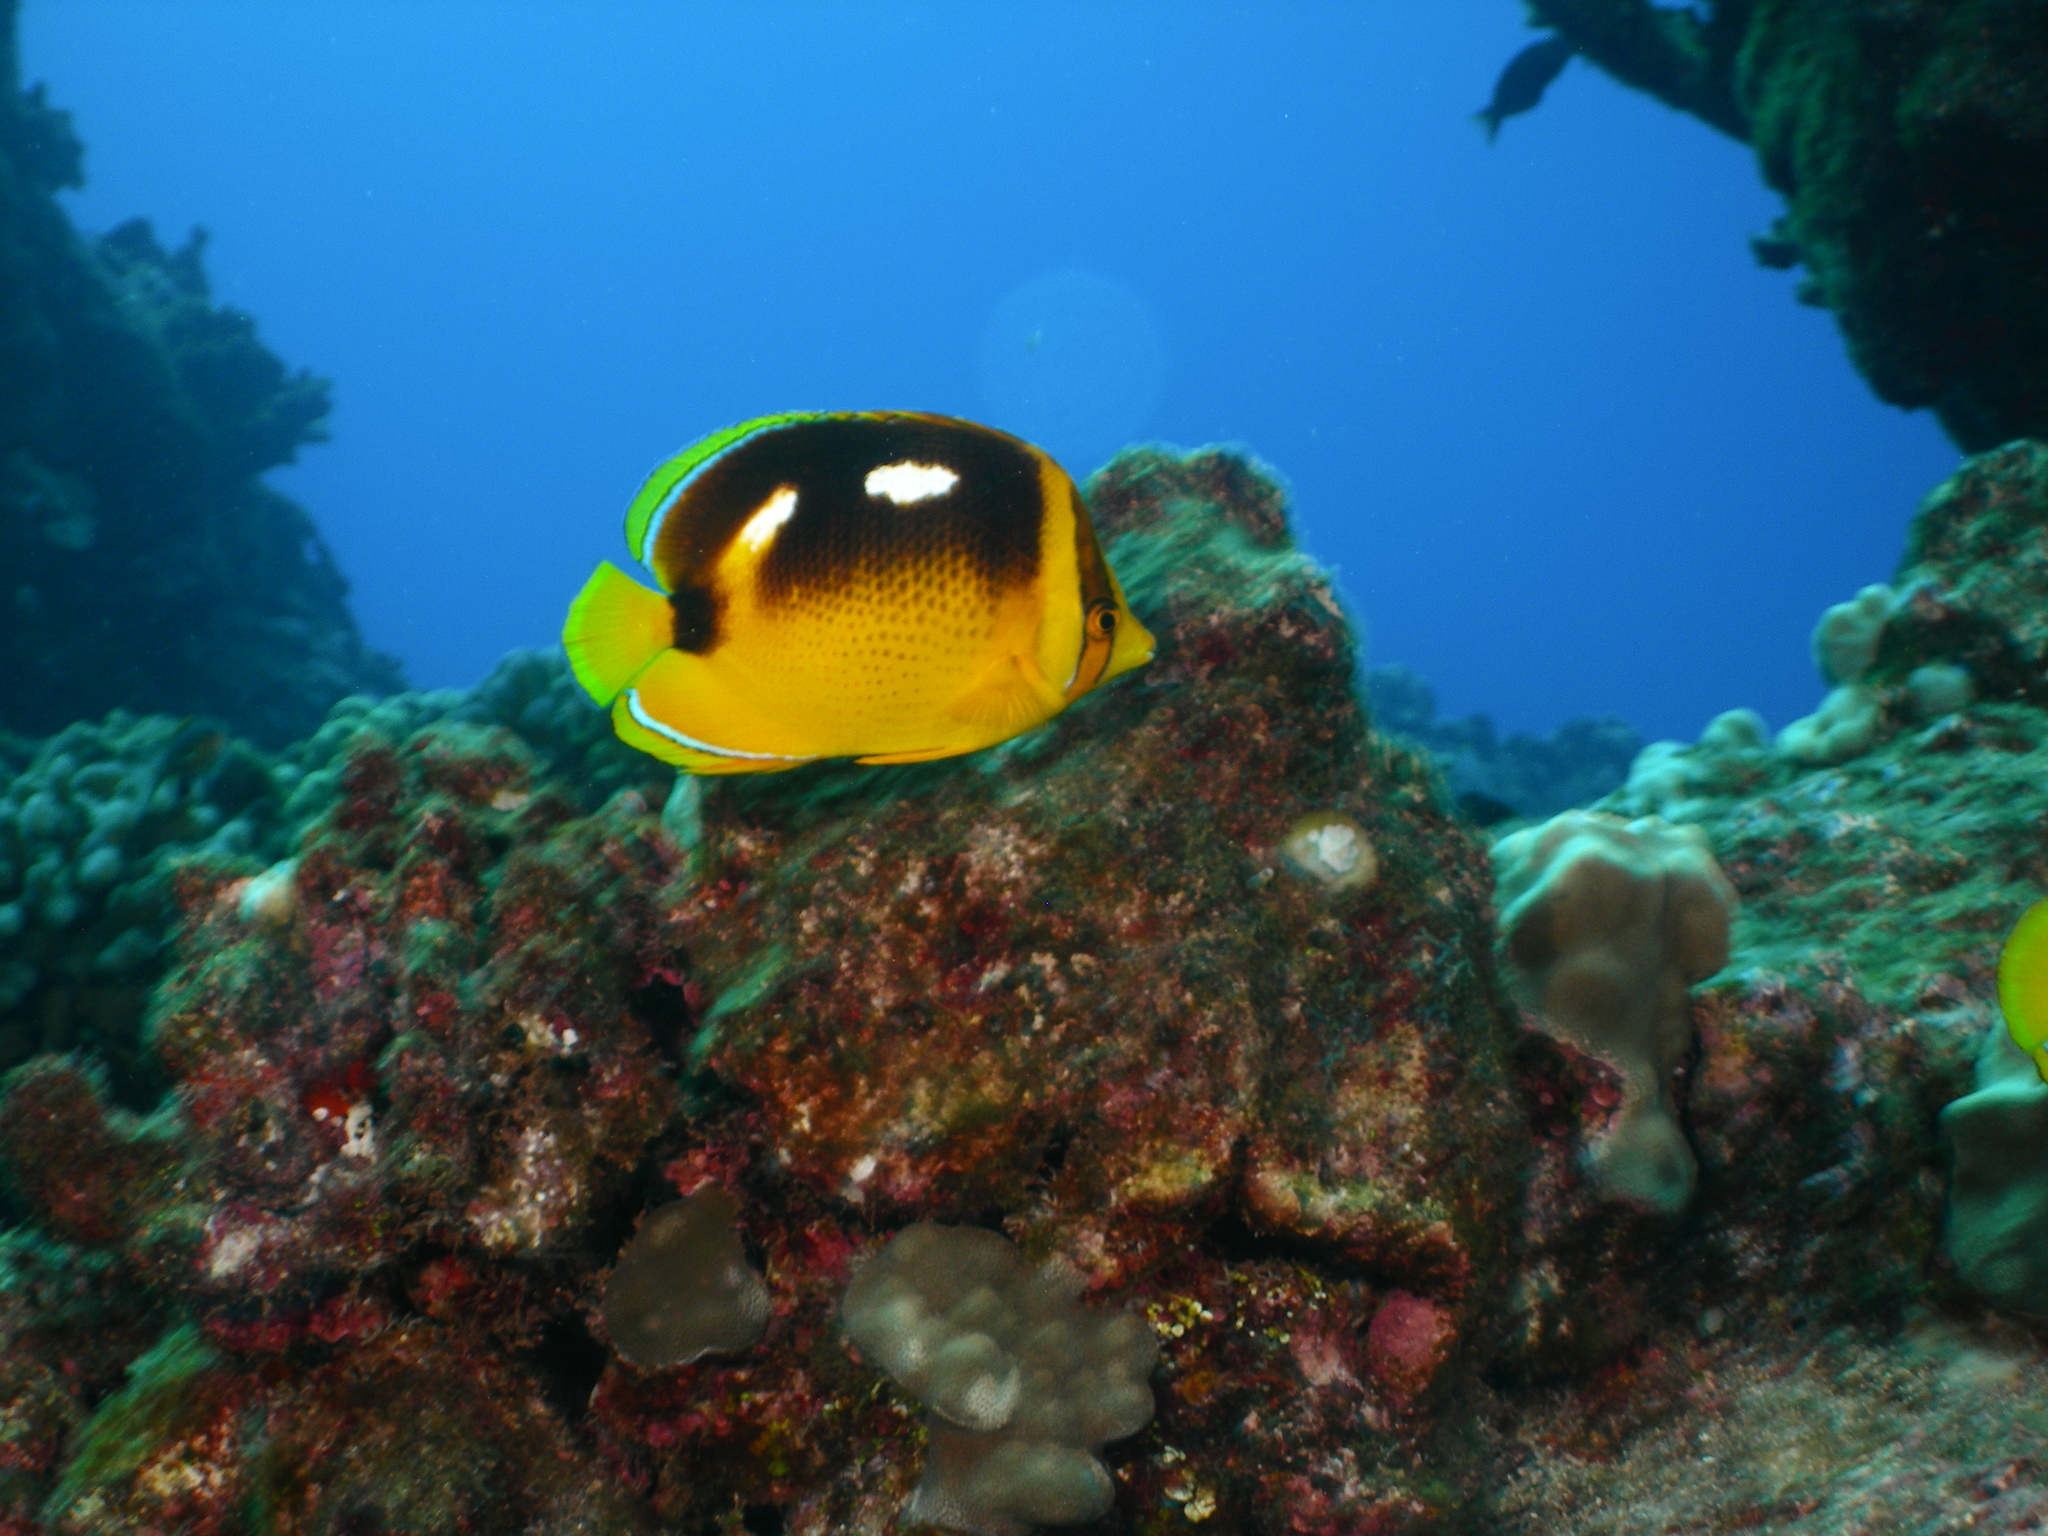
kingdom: Animalia
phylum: Chordata
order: Perciformes
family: Chaetodontidae
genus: Chaetodon
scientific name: Chaetodon quadrimaculatus
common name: Fourspot butterflyfish
